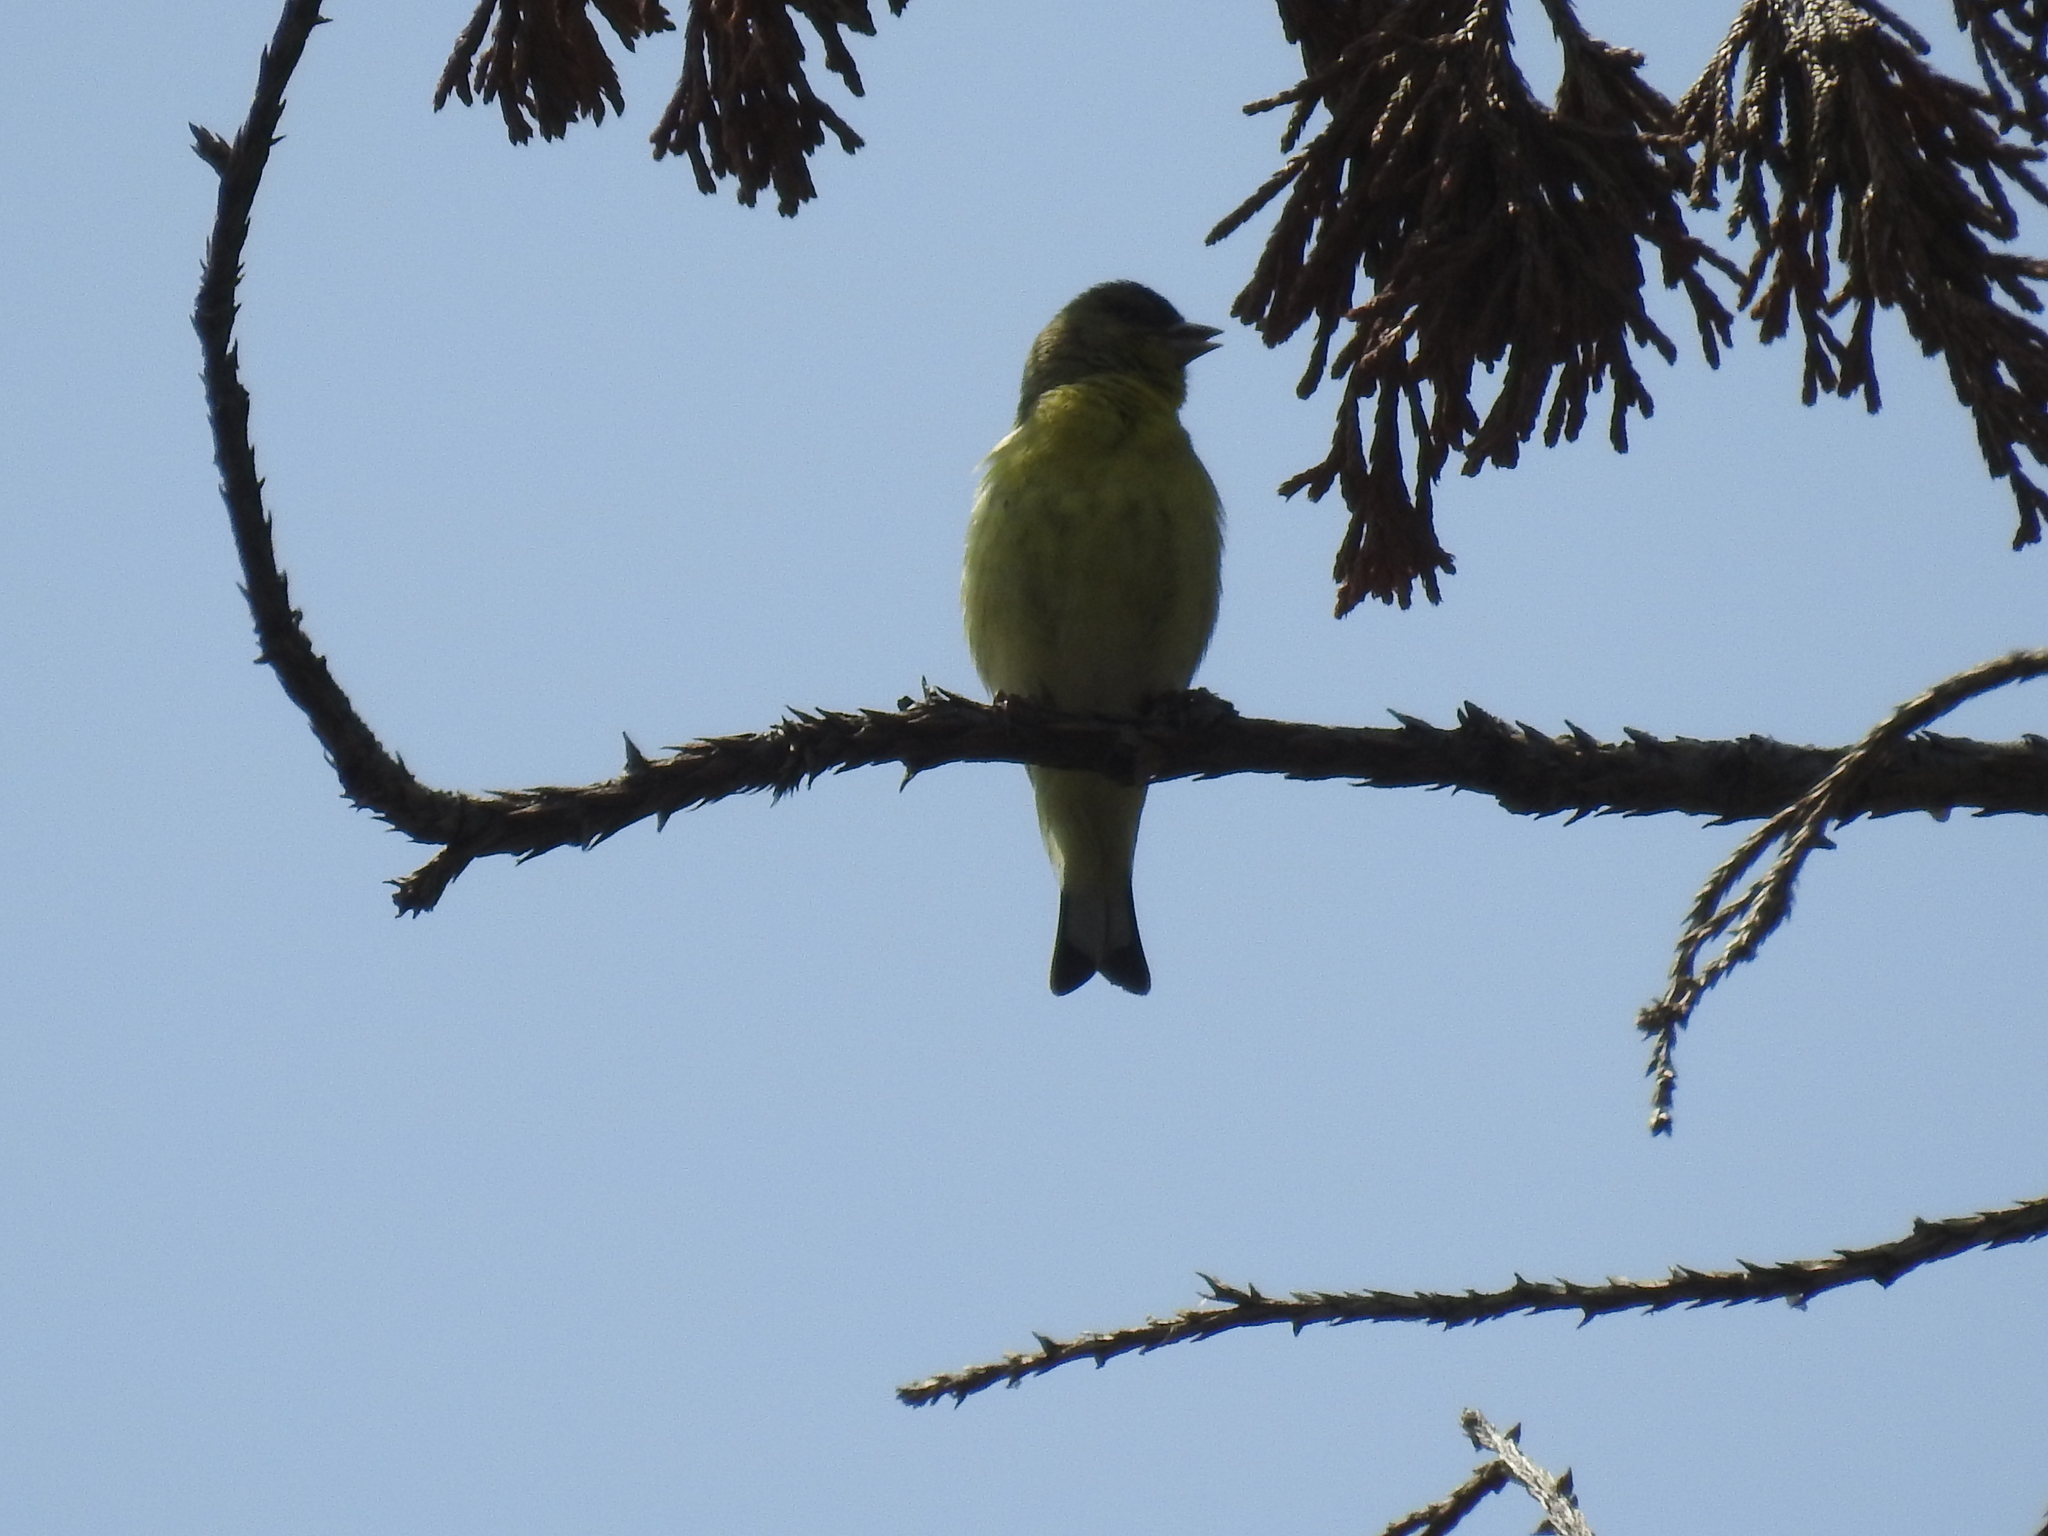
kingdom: Animalia
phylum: Chordata
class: Aves
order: Passeriformes
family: Fringillidae
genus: Spinus
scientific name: Spinus psaltria
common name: Lesser goldfinch
